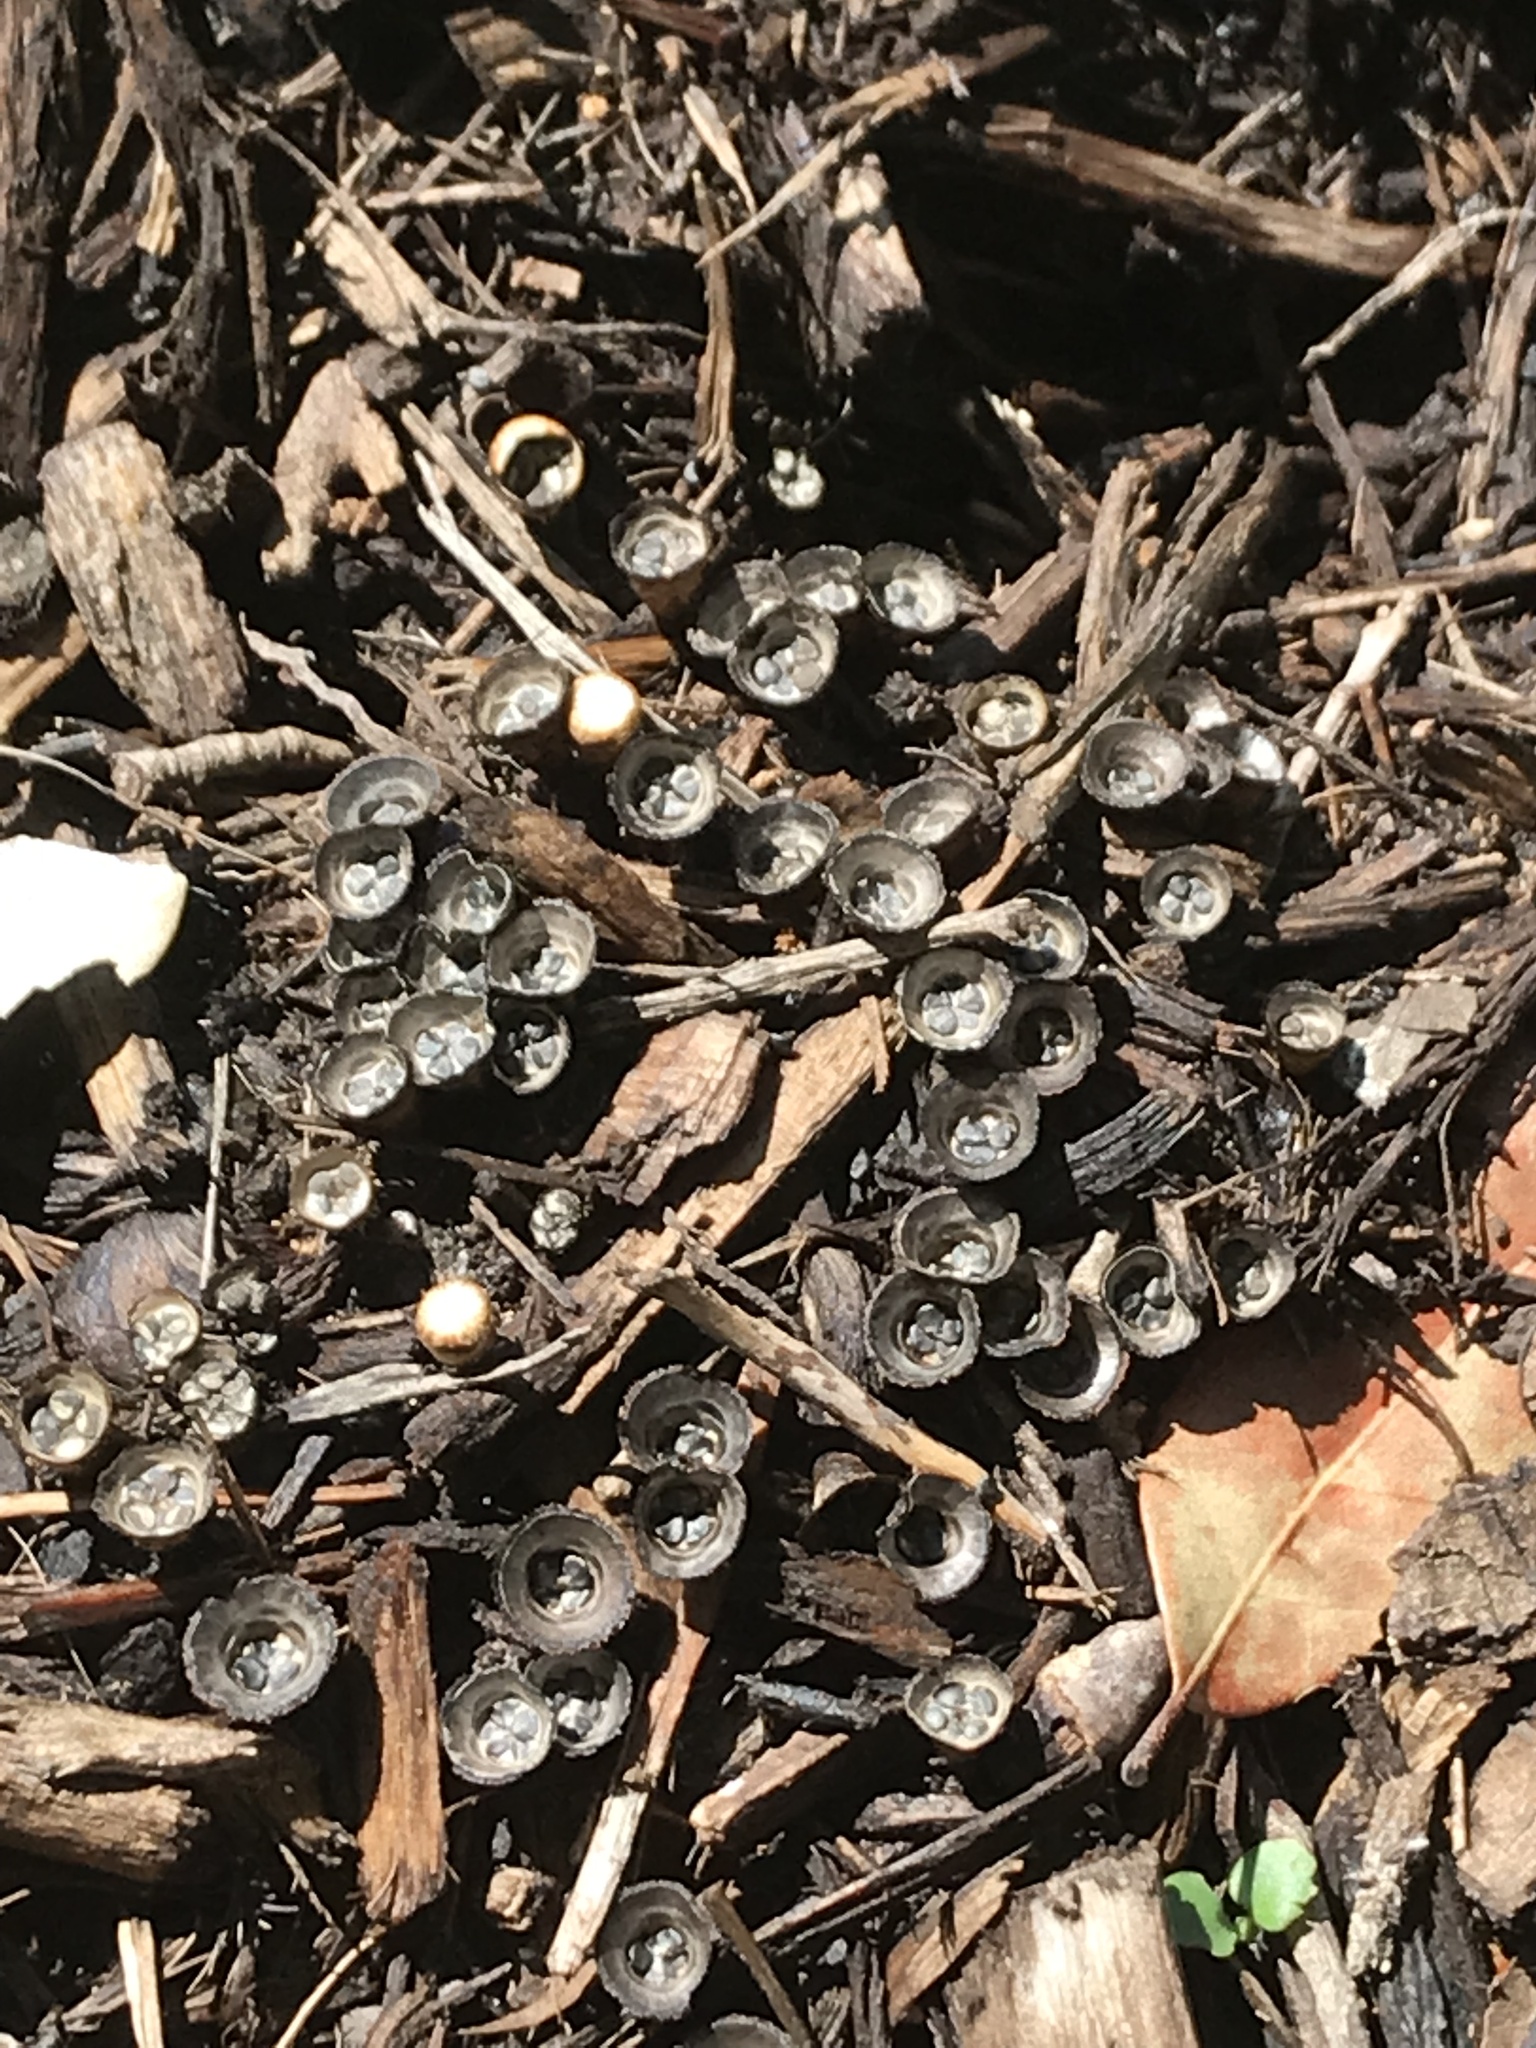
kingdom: Fungi
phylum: Basidiomycota
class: Agaricomycetes
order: Agaricales
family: Agaricaceae
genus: Cyathus
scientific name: Cyathus stercoreus
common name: Dung bird's nest
